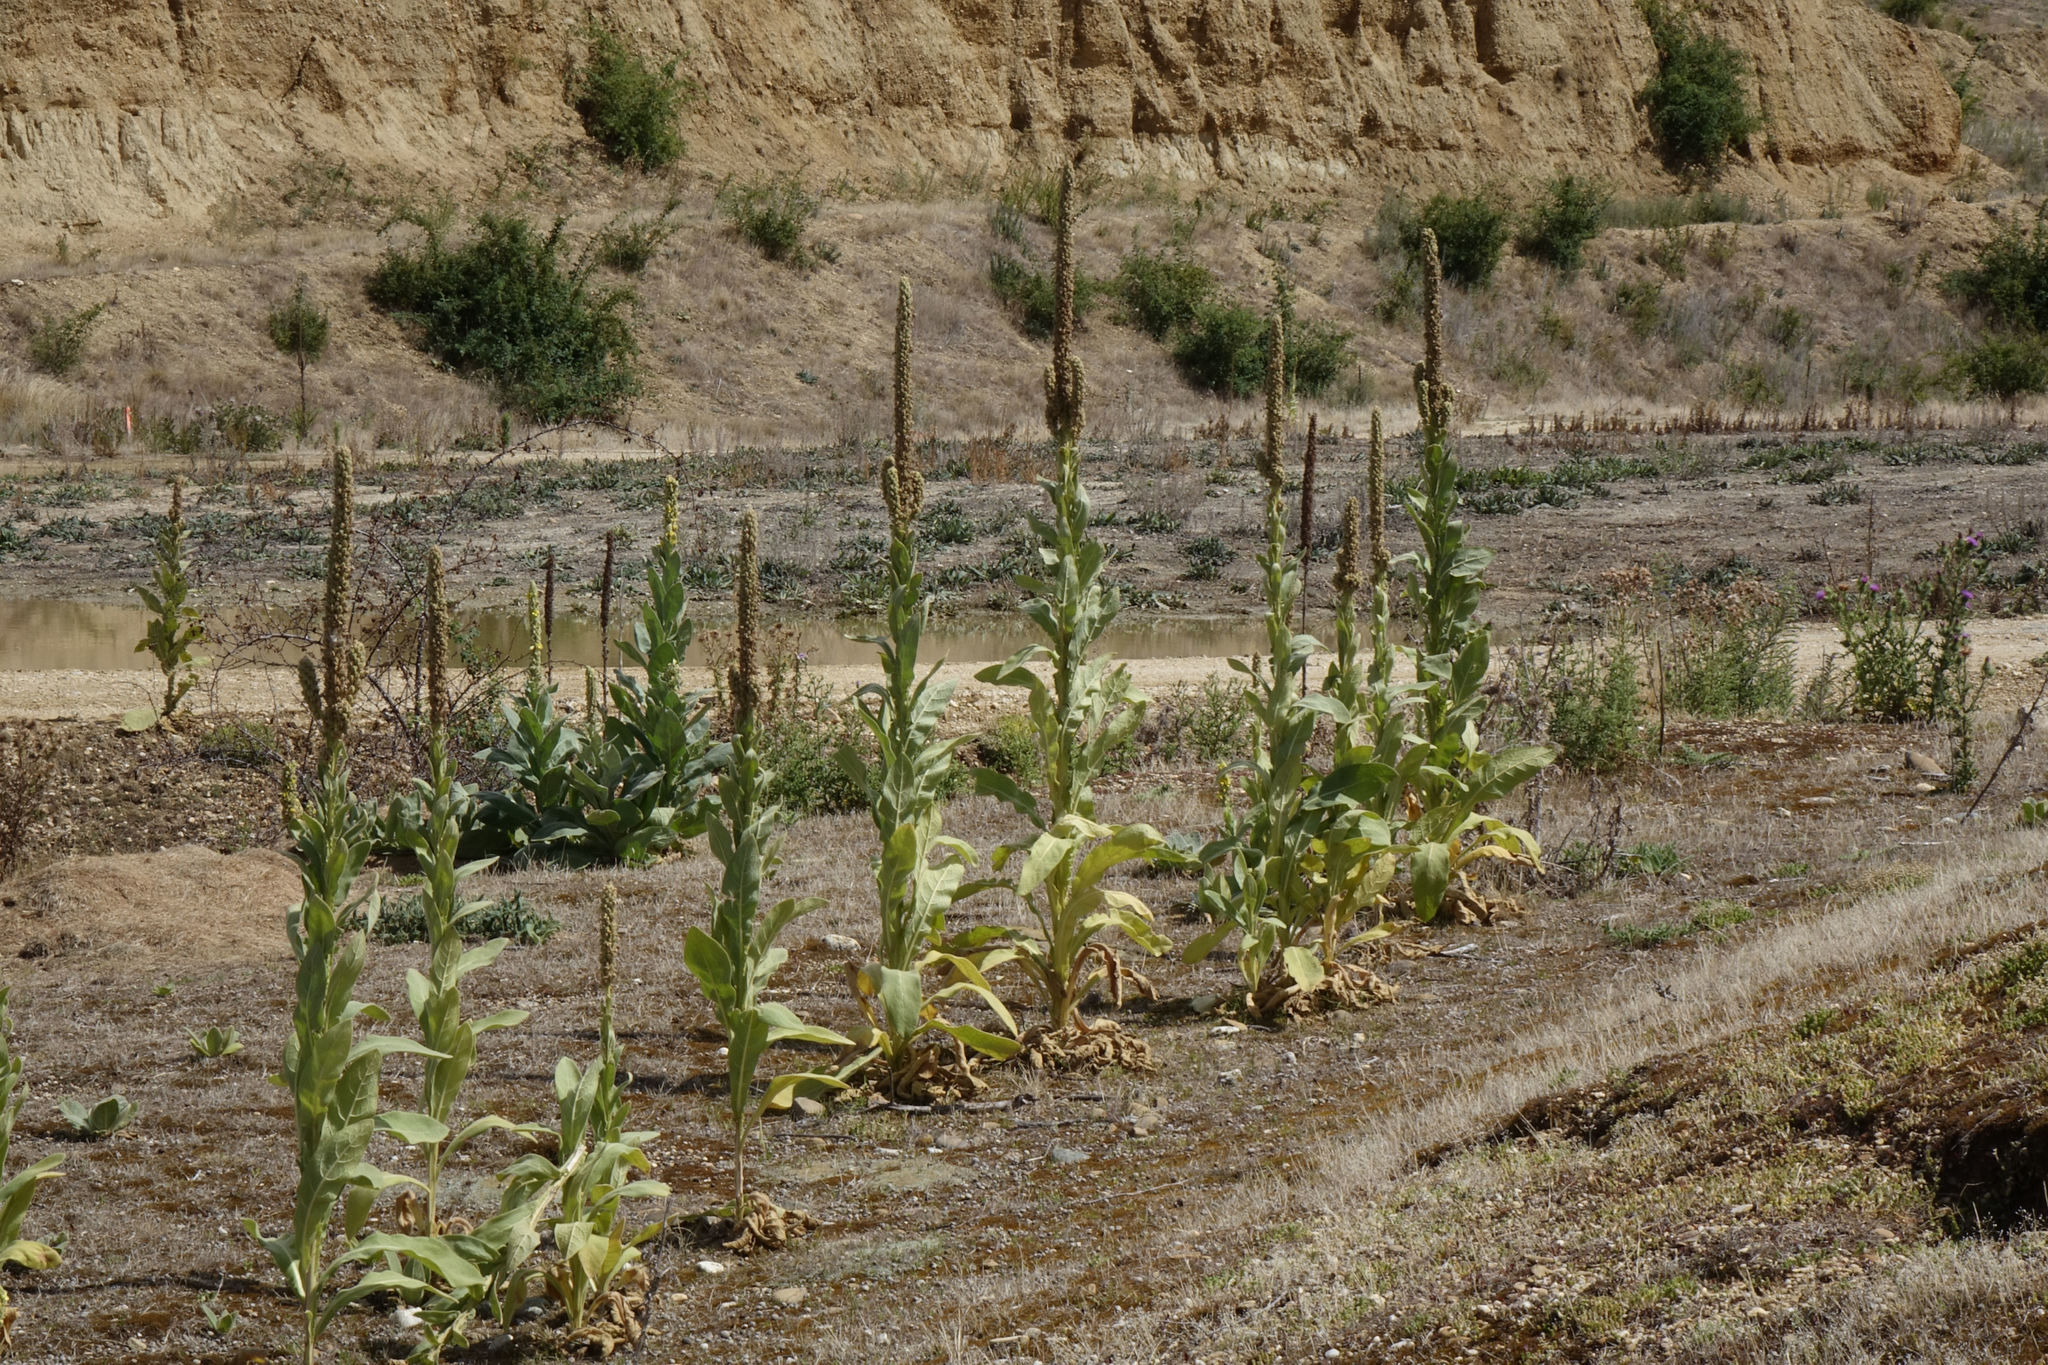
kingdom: Plantae
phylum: Tracheophyta
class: Magnoliopsida
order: Lamiales
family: Scrophulariaceae
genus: Verbascum
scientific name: Verbascum thapsus
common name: Common mullein
